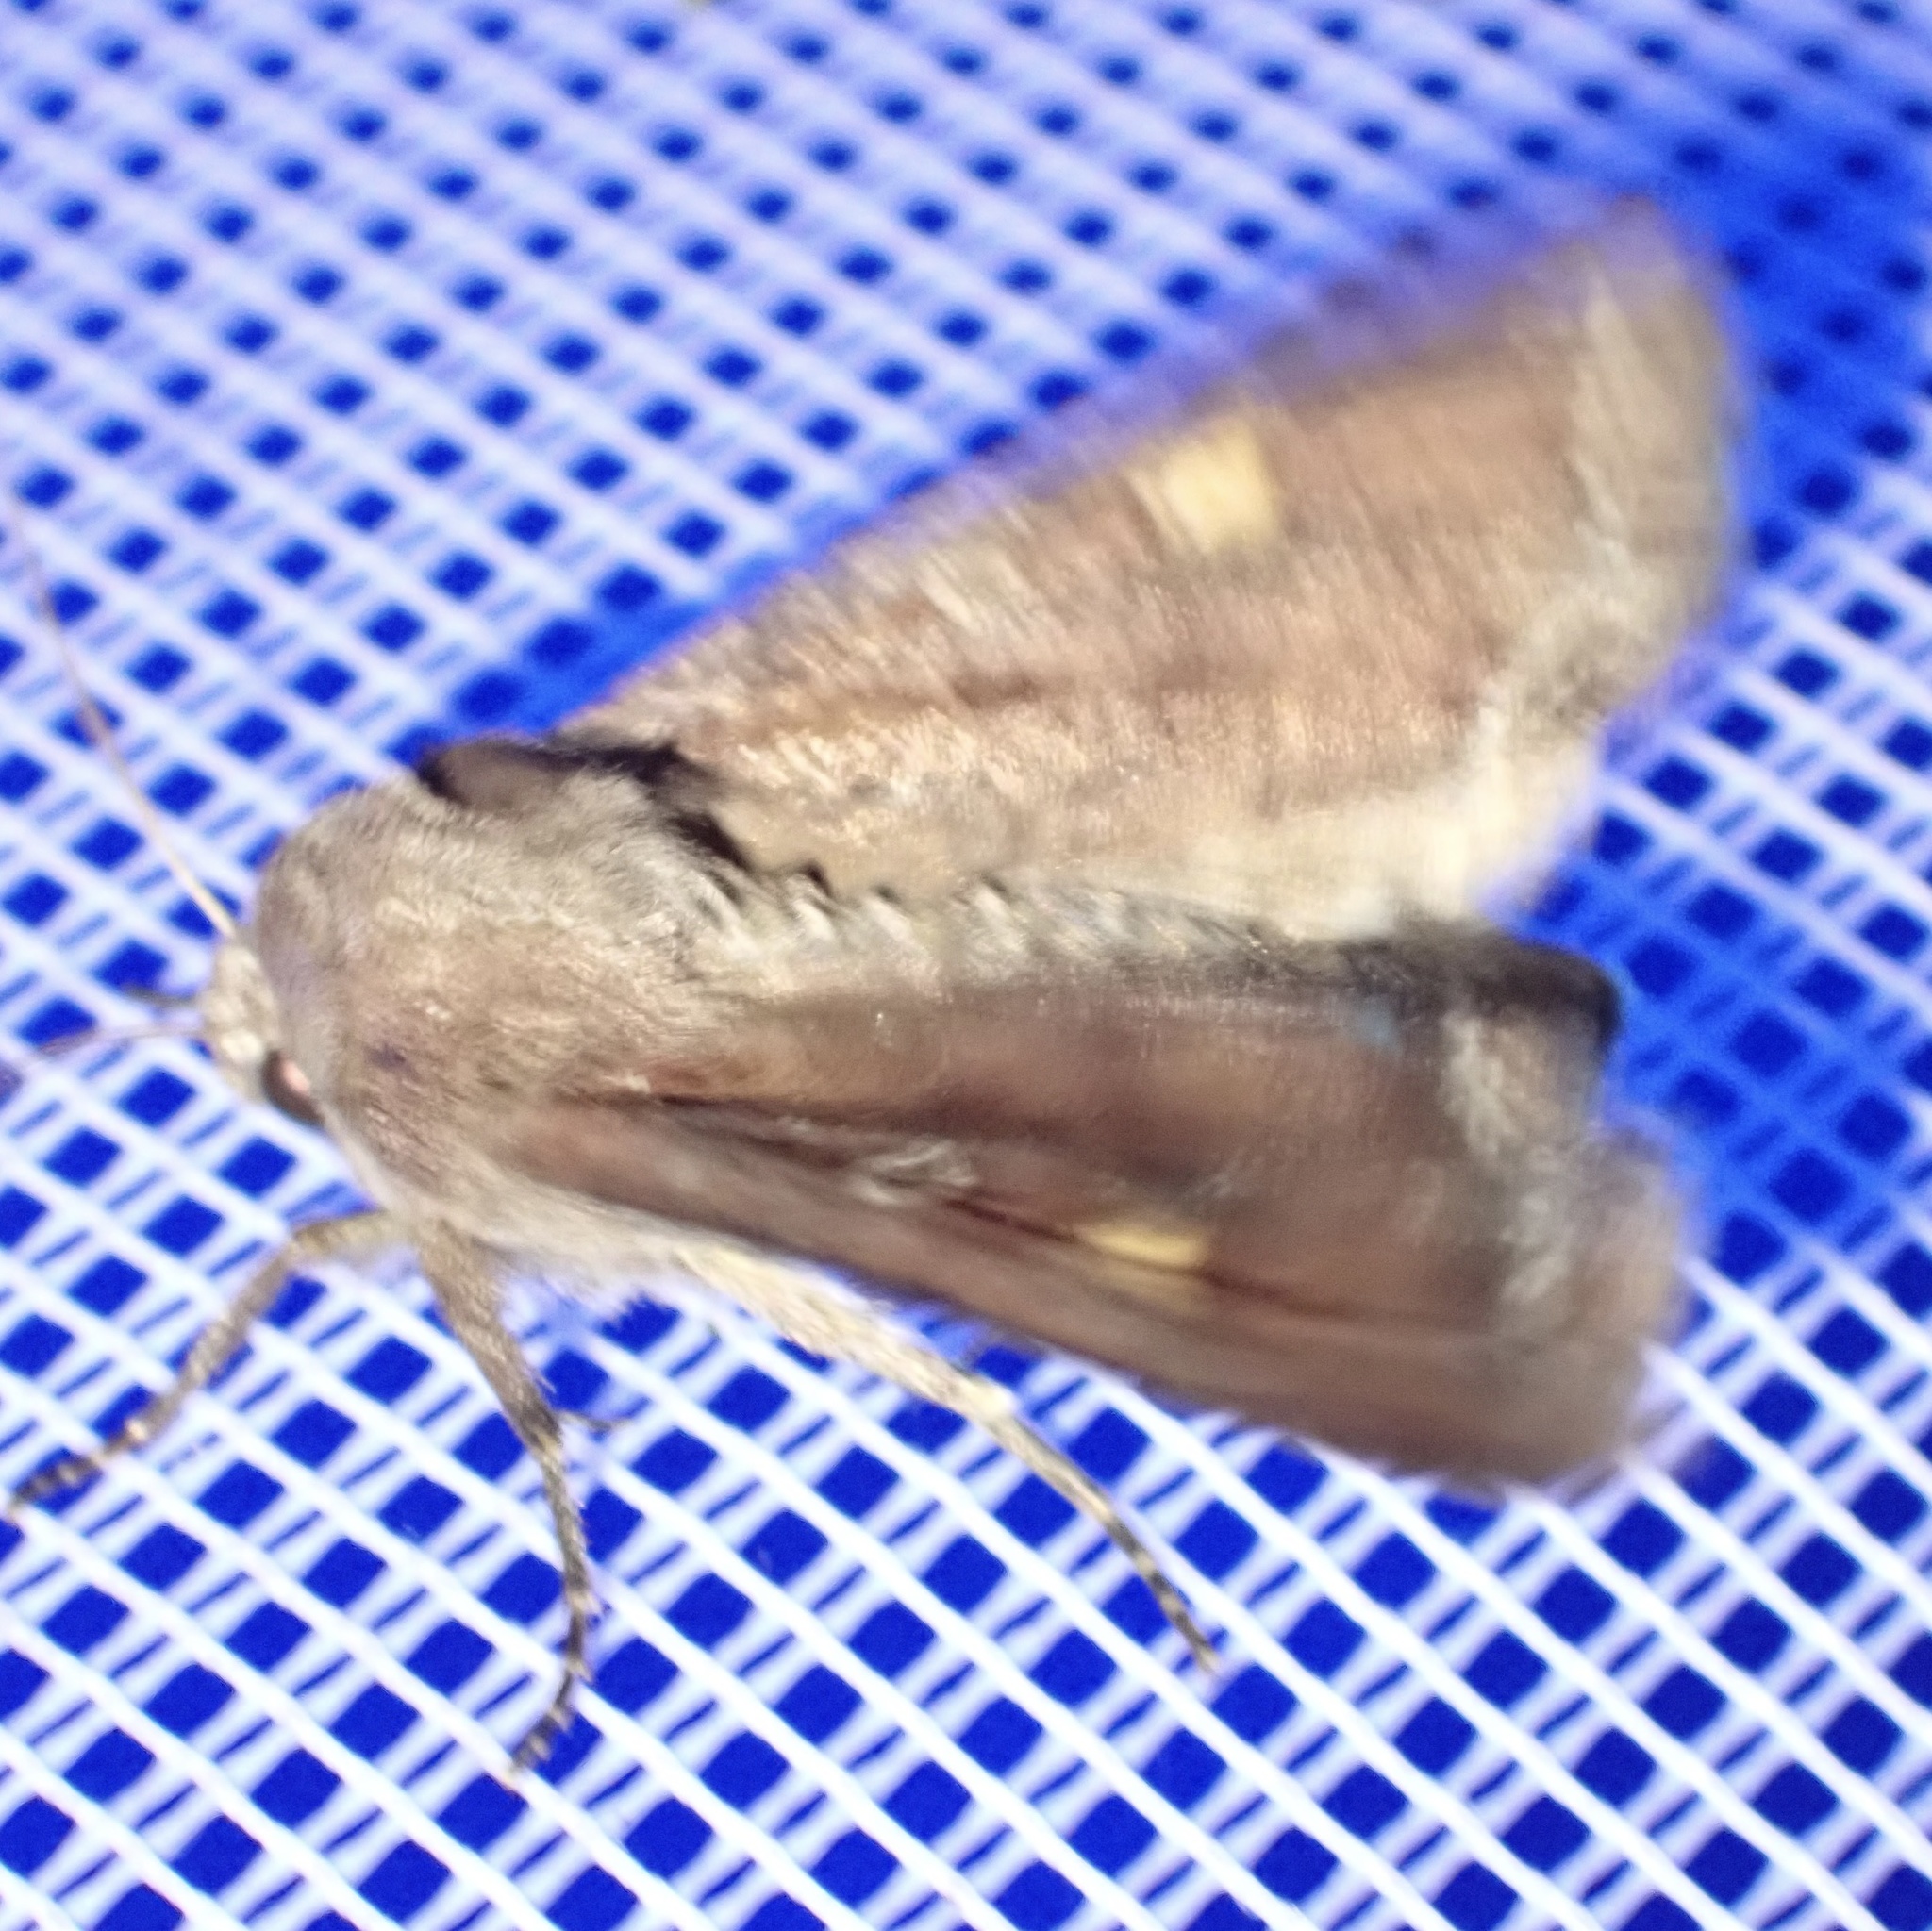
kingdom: Animalia
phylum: Arthropoda
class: Insecta
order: Lepidoptera
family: Noctuidae
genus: Lacanobia
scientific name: Lacanobia oleracea
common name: Bright-line brown-eye
